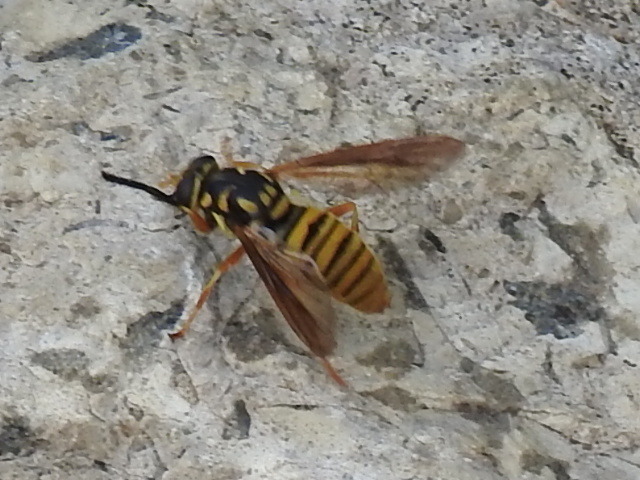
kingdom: Animalia
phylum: Arthropoda
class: Insecta
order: Diptera
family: Syrphidae
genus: Temnostoma
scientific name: Temnostoma daochum
